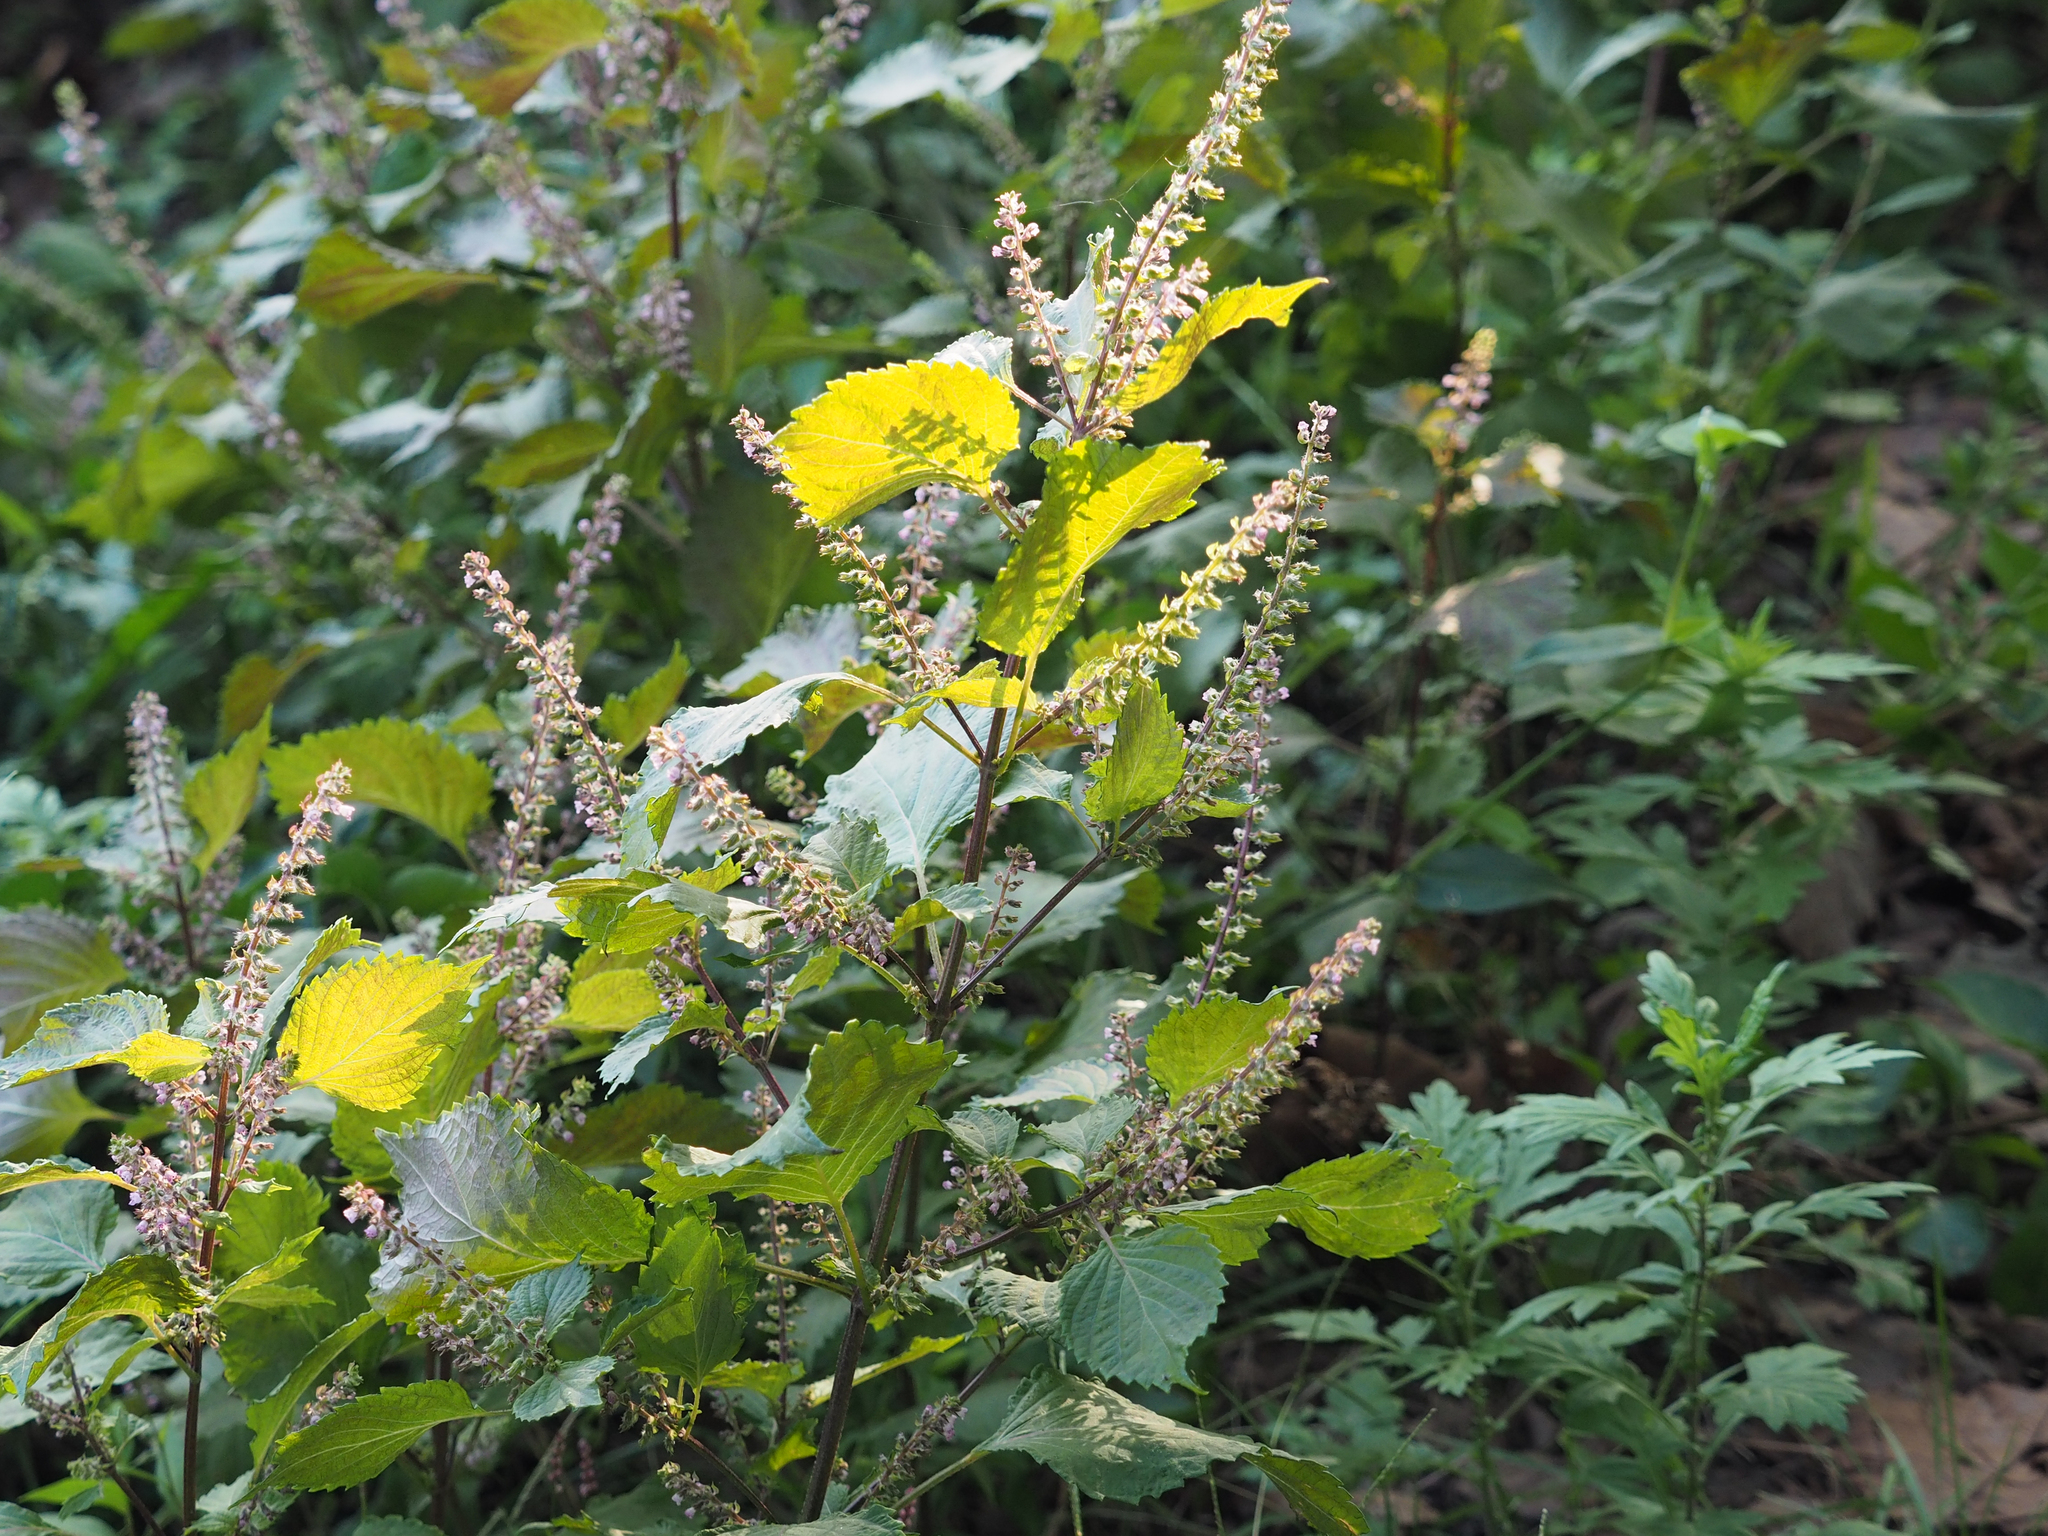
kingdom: Plantae
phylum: Tracheophyta
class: Magnoliopsida
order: Lamiales
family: Lamiaceae
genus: Perilla
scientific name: Perilla frutescens
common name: Perilla
